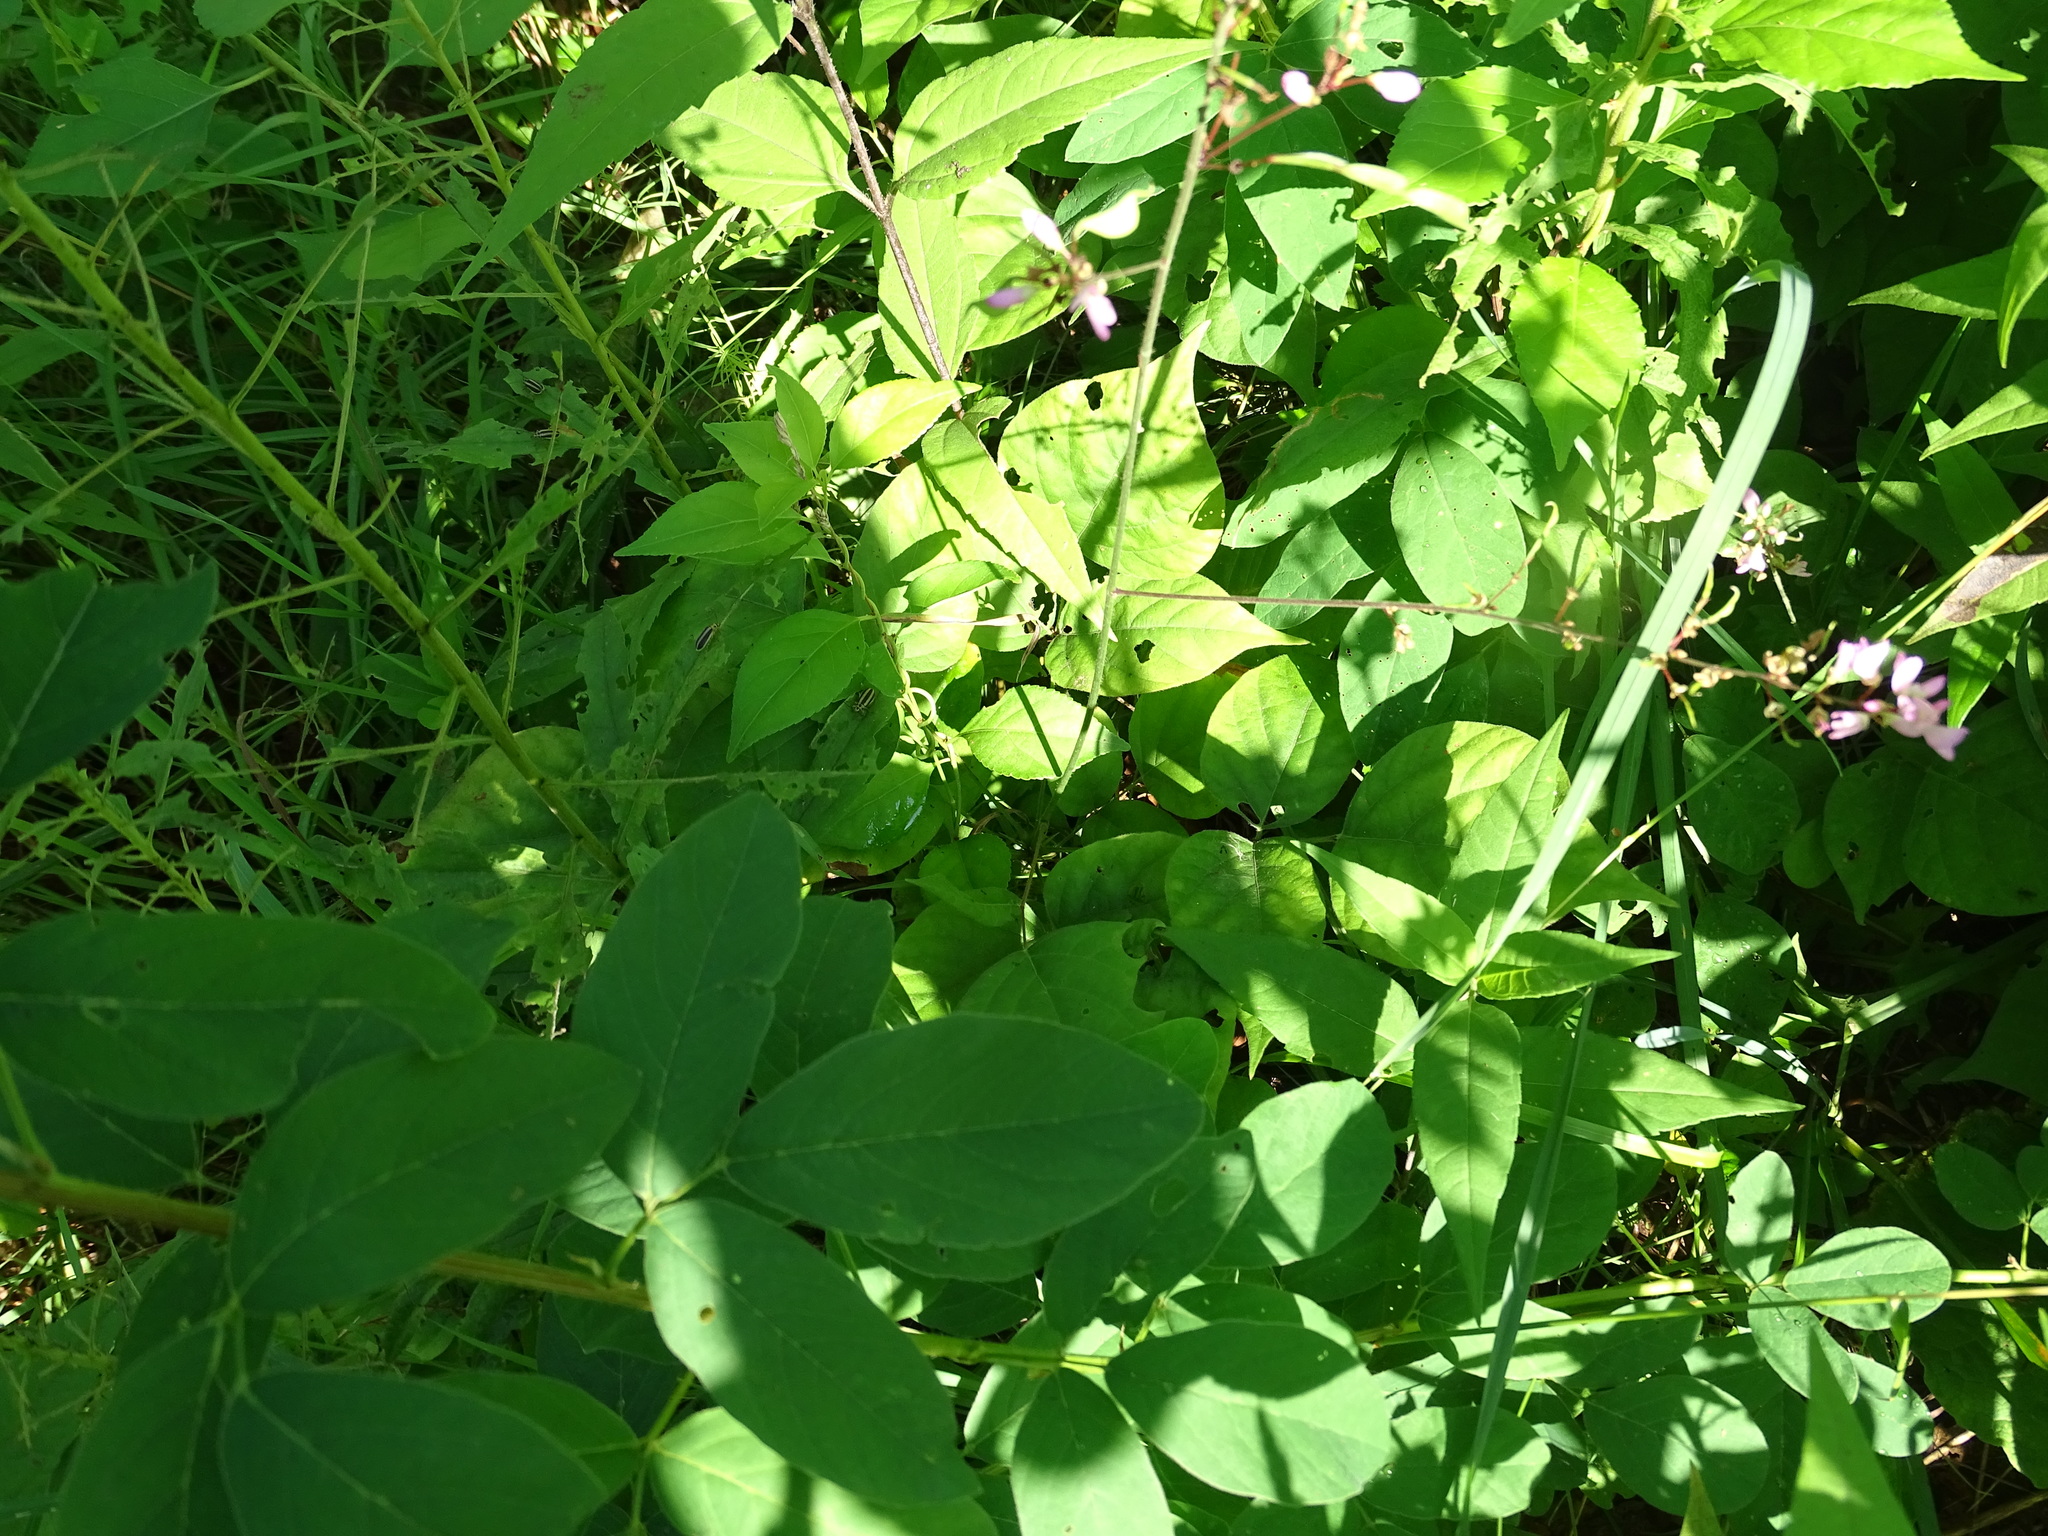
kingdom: Plantae
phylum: Tracheophyta
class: Magnoliopsida
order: Fabales
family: Fabaceae
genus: Hylodesmum
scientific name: Hylodesmum glutinosum
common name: Clustered-leaved tick-trefoil
